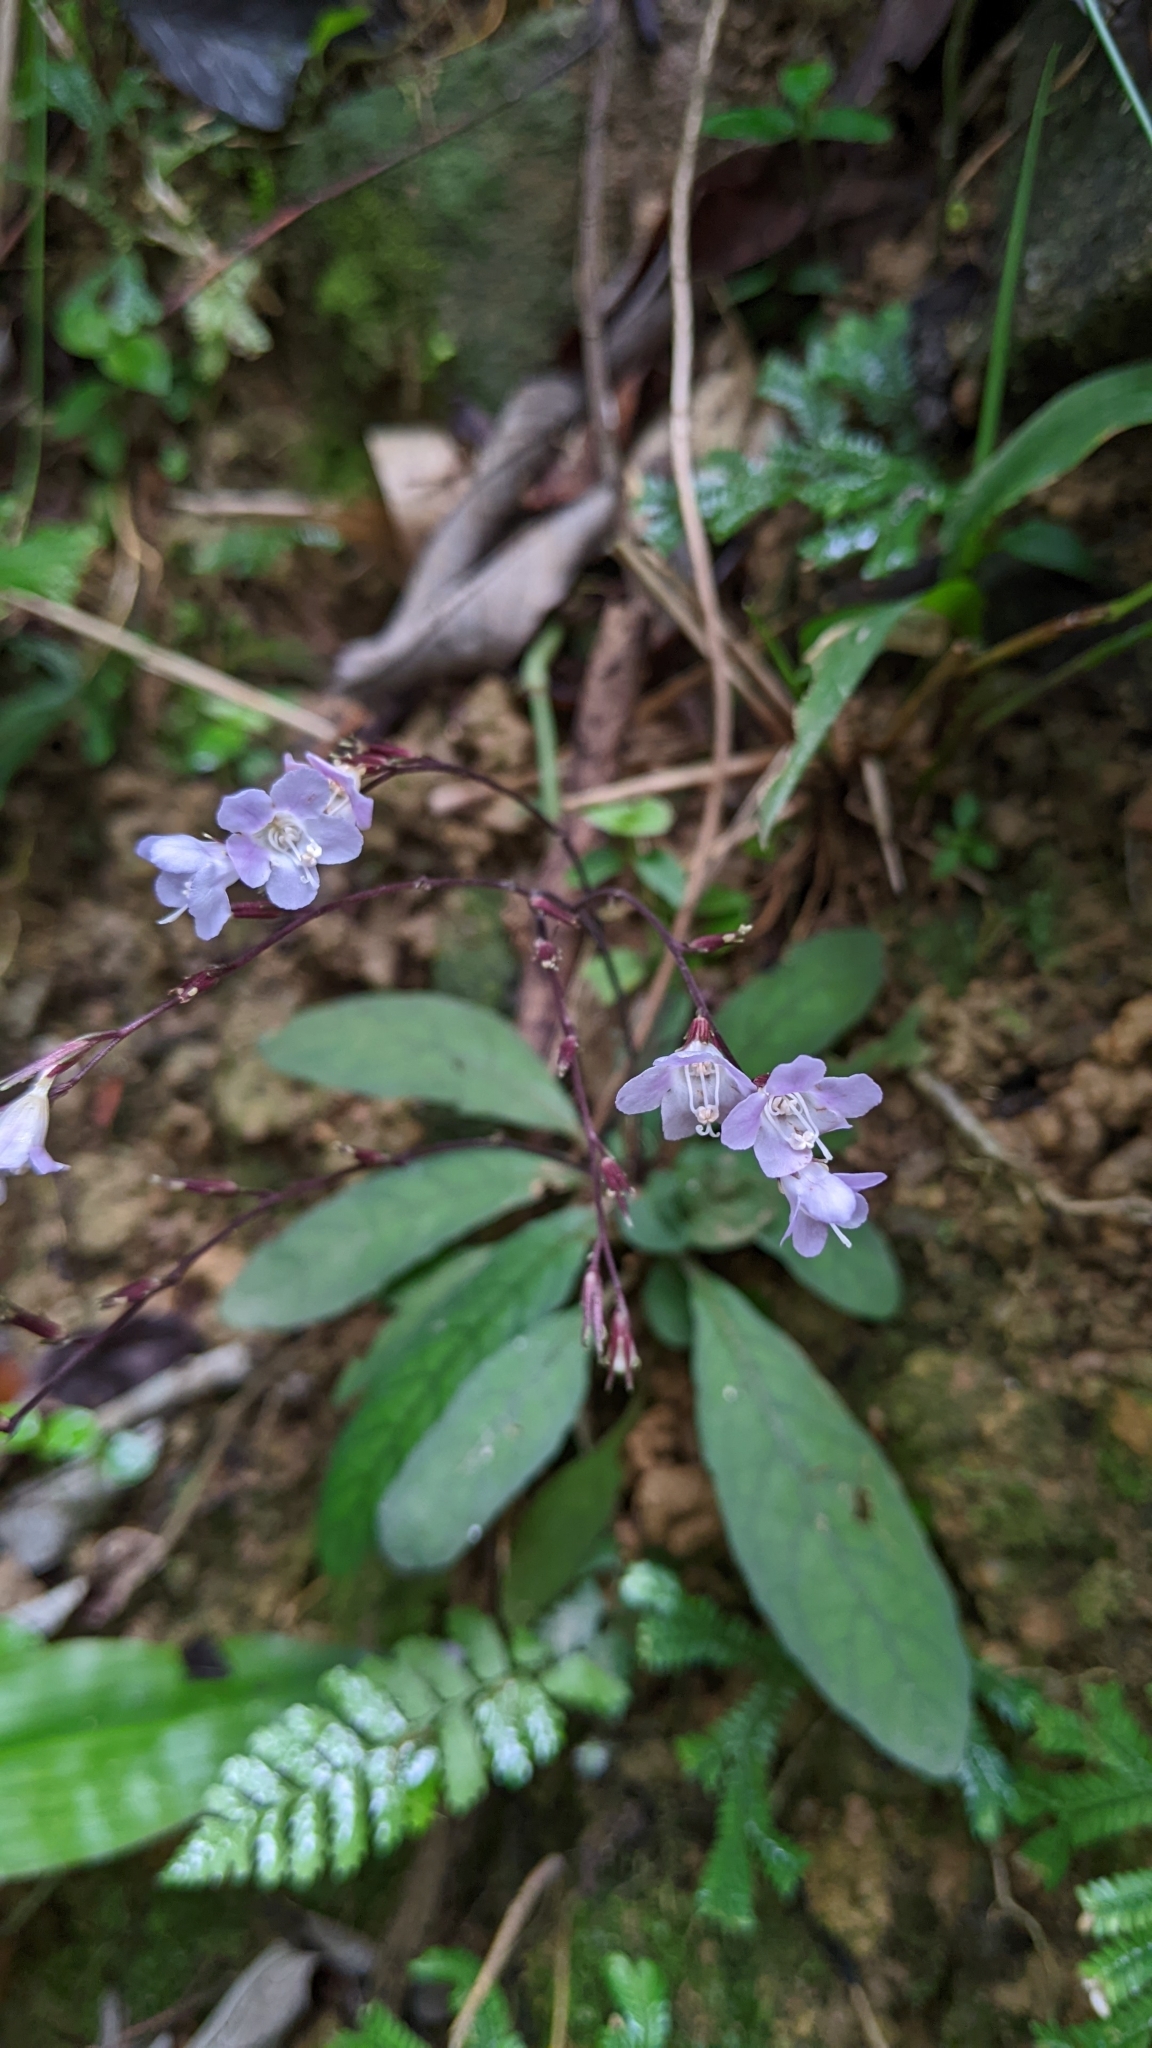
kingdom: Plantae
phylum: Tracheophyta
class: Magnoliopsida
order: Lamiales
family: Acanthaceae
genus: Staurogyne
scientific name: Staurogyne concinnula
